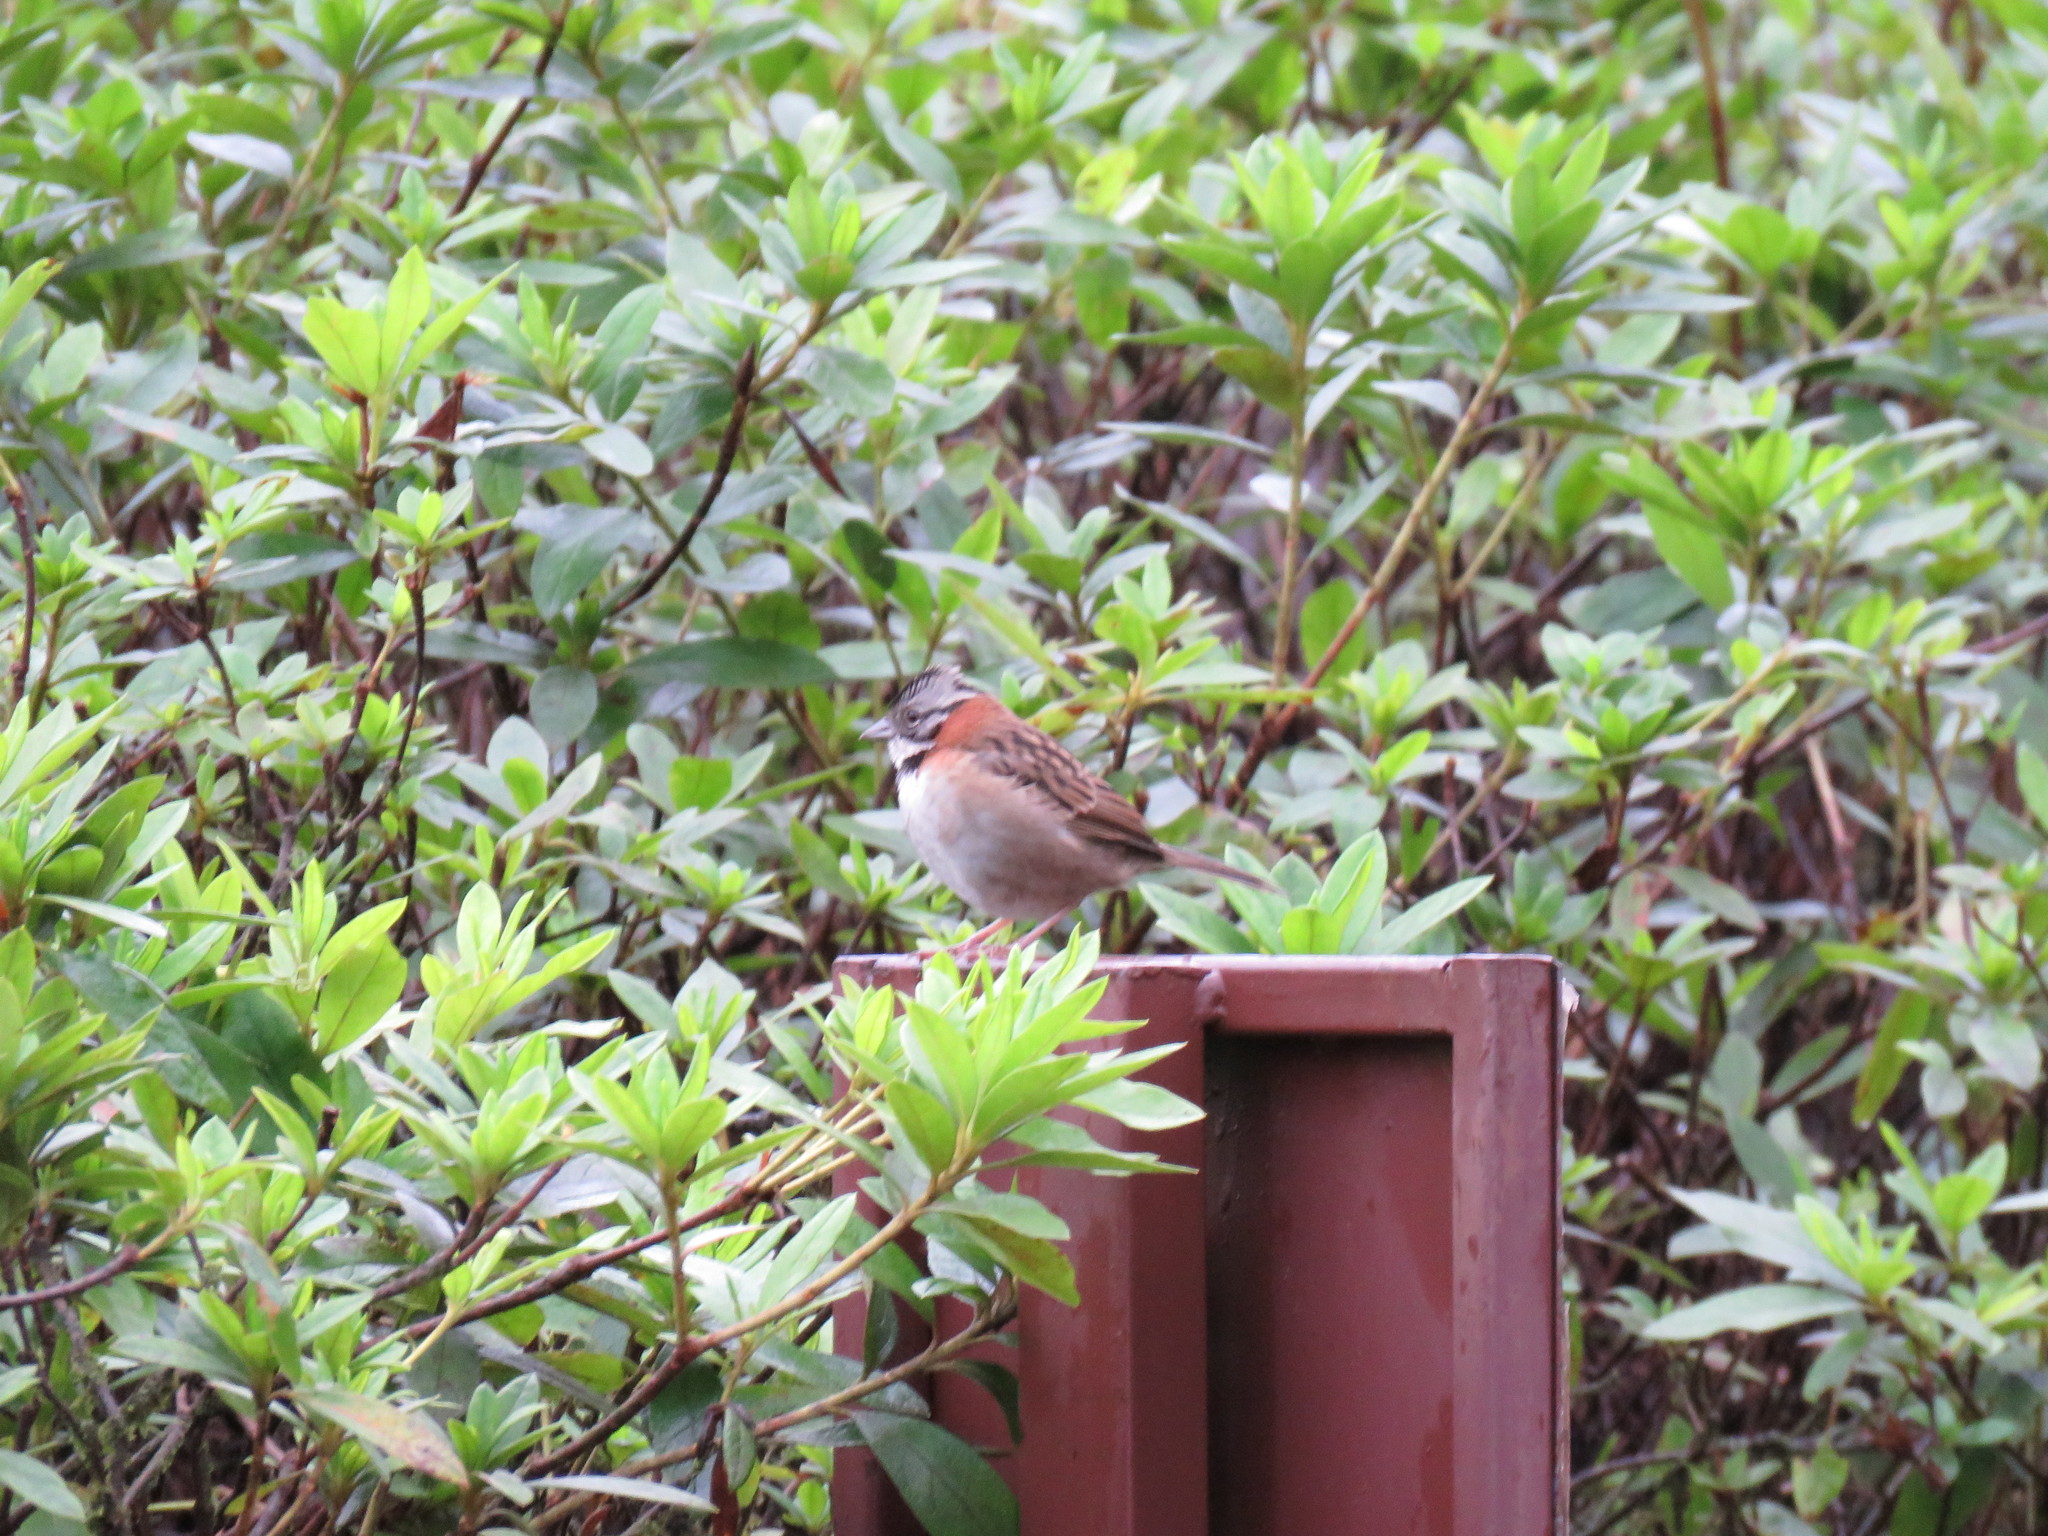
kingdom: Animalia
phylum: Chordata
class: Aves
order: Passeriformes
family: Passerellidae
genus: Zonotrichia
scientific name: Zonotrichia capensis
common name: Rufous-collared sparrow
